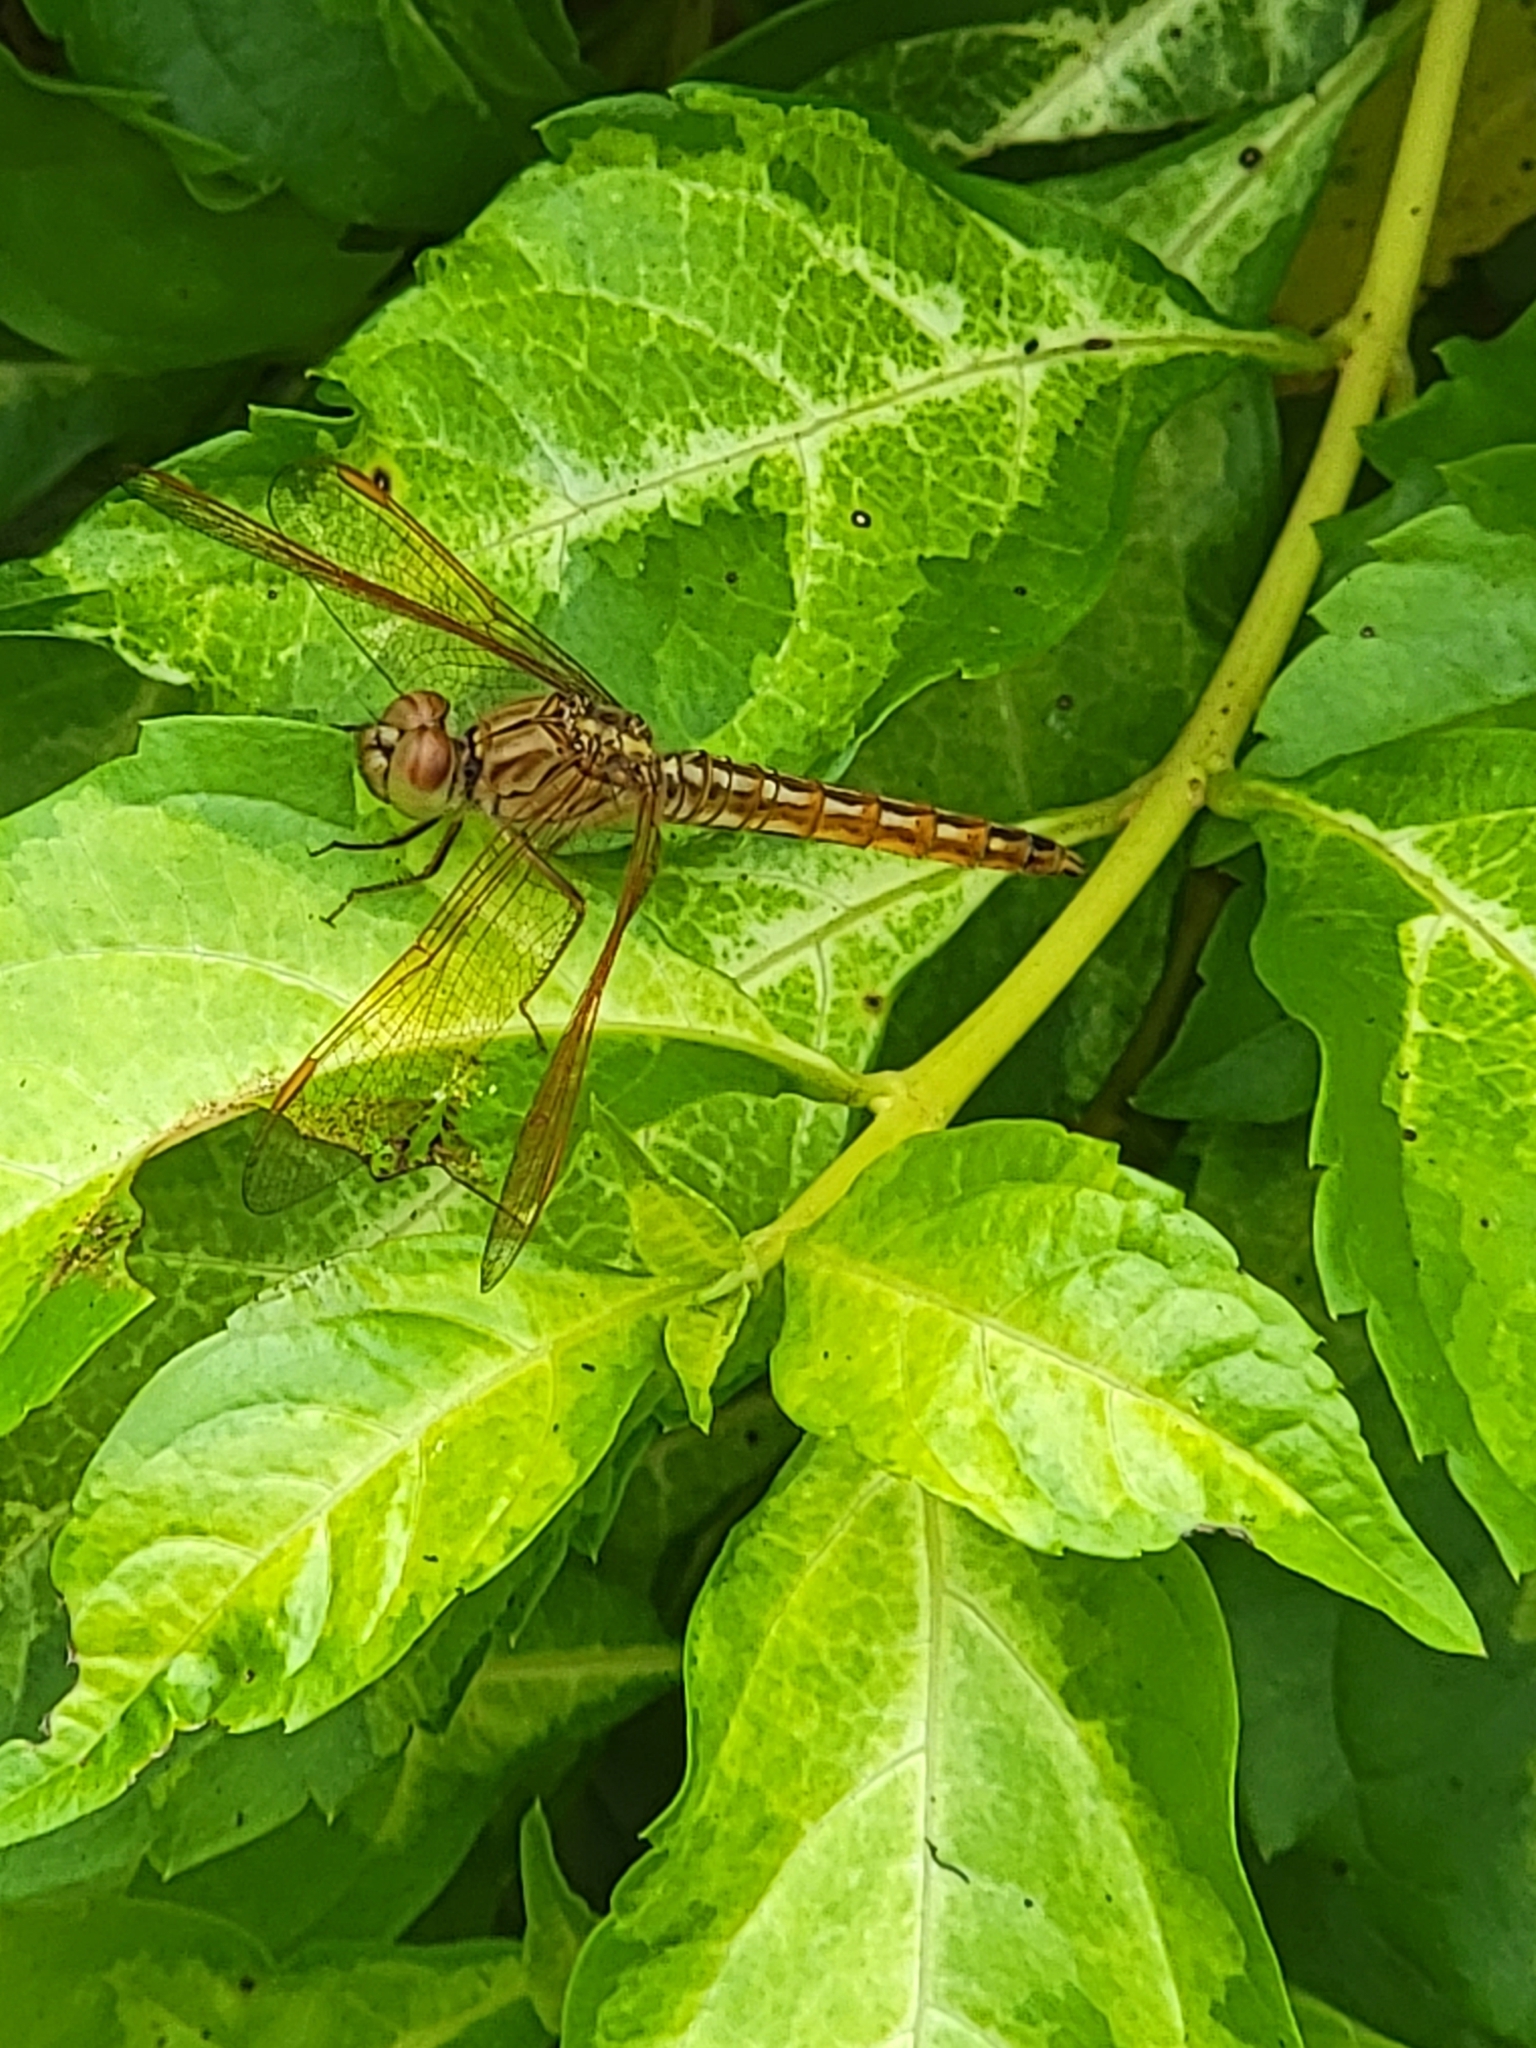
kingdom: Animalia
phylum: Arthropoda
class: Insecta
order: Odonata
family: Libellulidae
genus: Brachythemis
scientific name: Brachythemis contaminata
